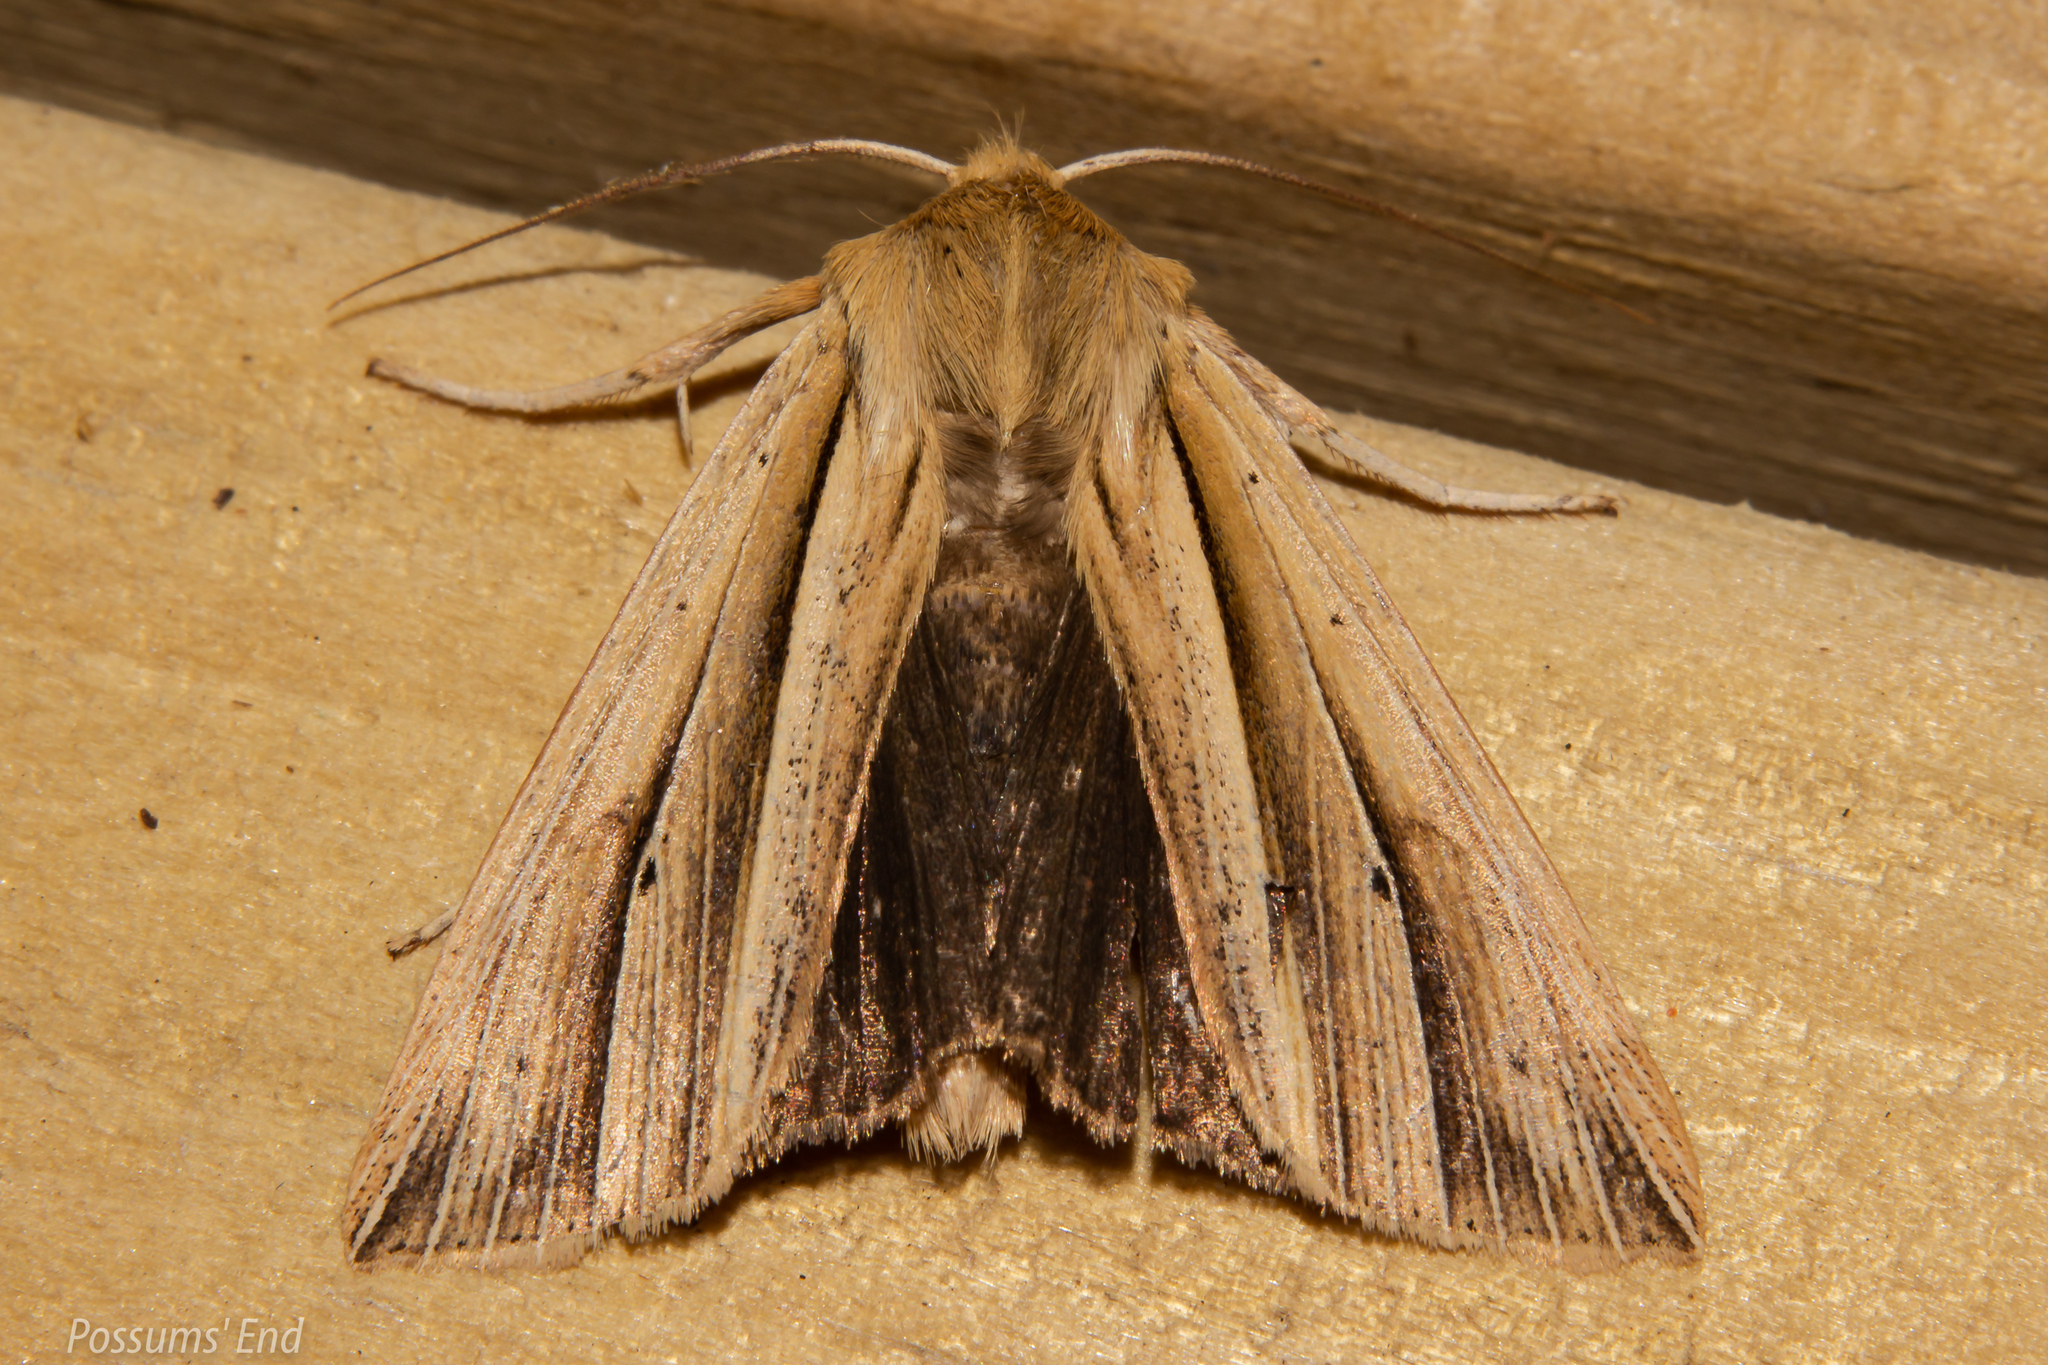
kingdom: Animalia
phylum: Arthropoda
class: Insecta
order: Lepidoptera
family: Noctuidae
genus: Ichneutica
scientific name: Ichneutica sulcana
